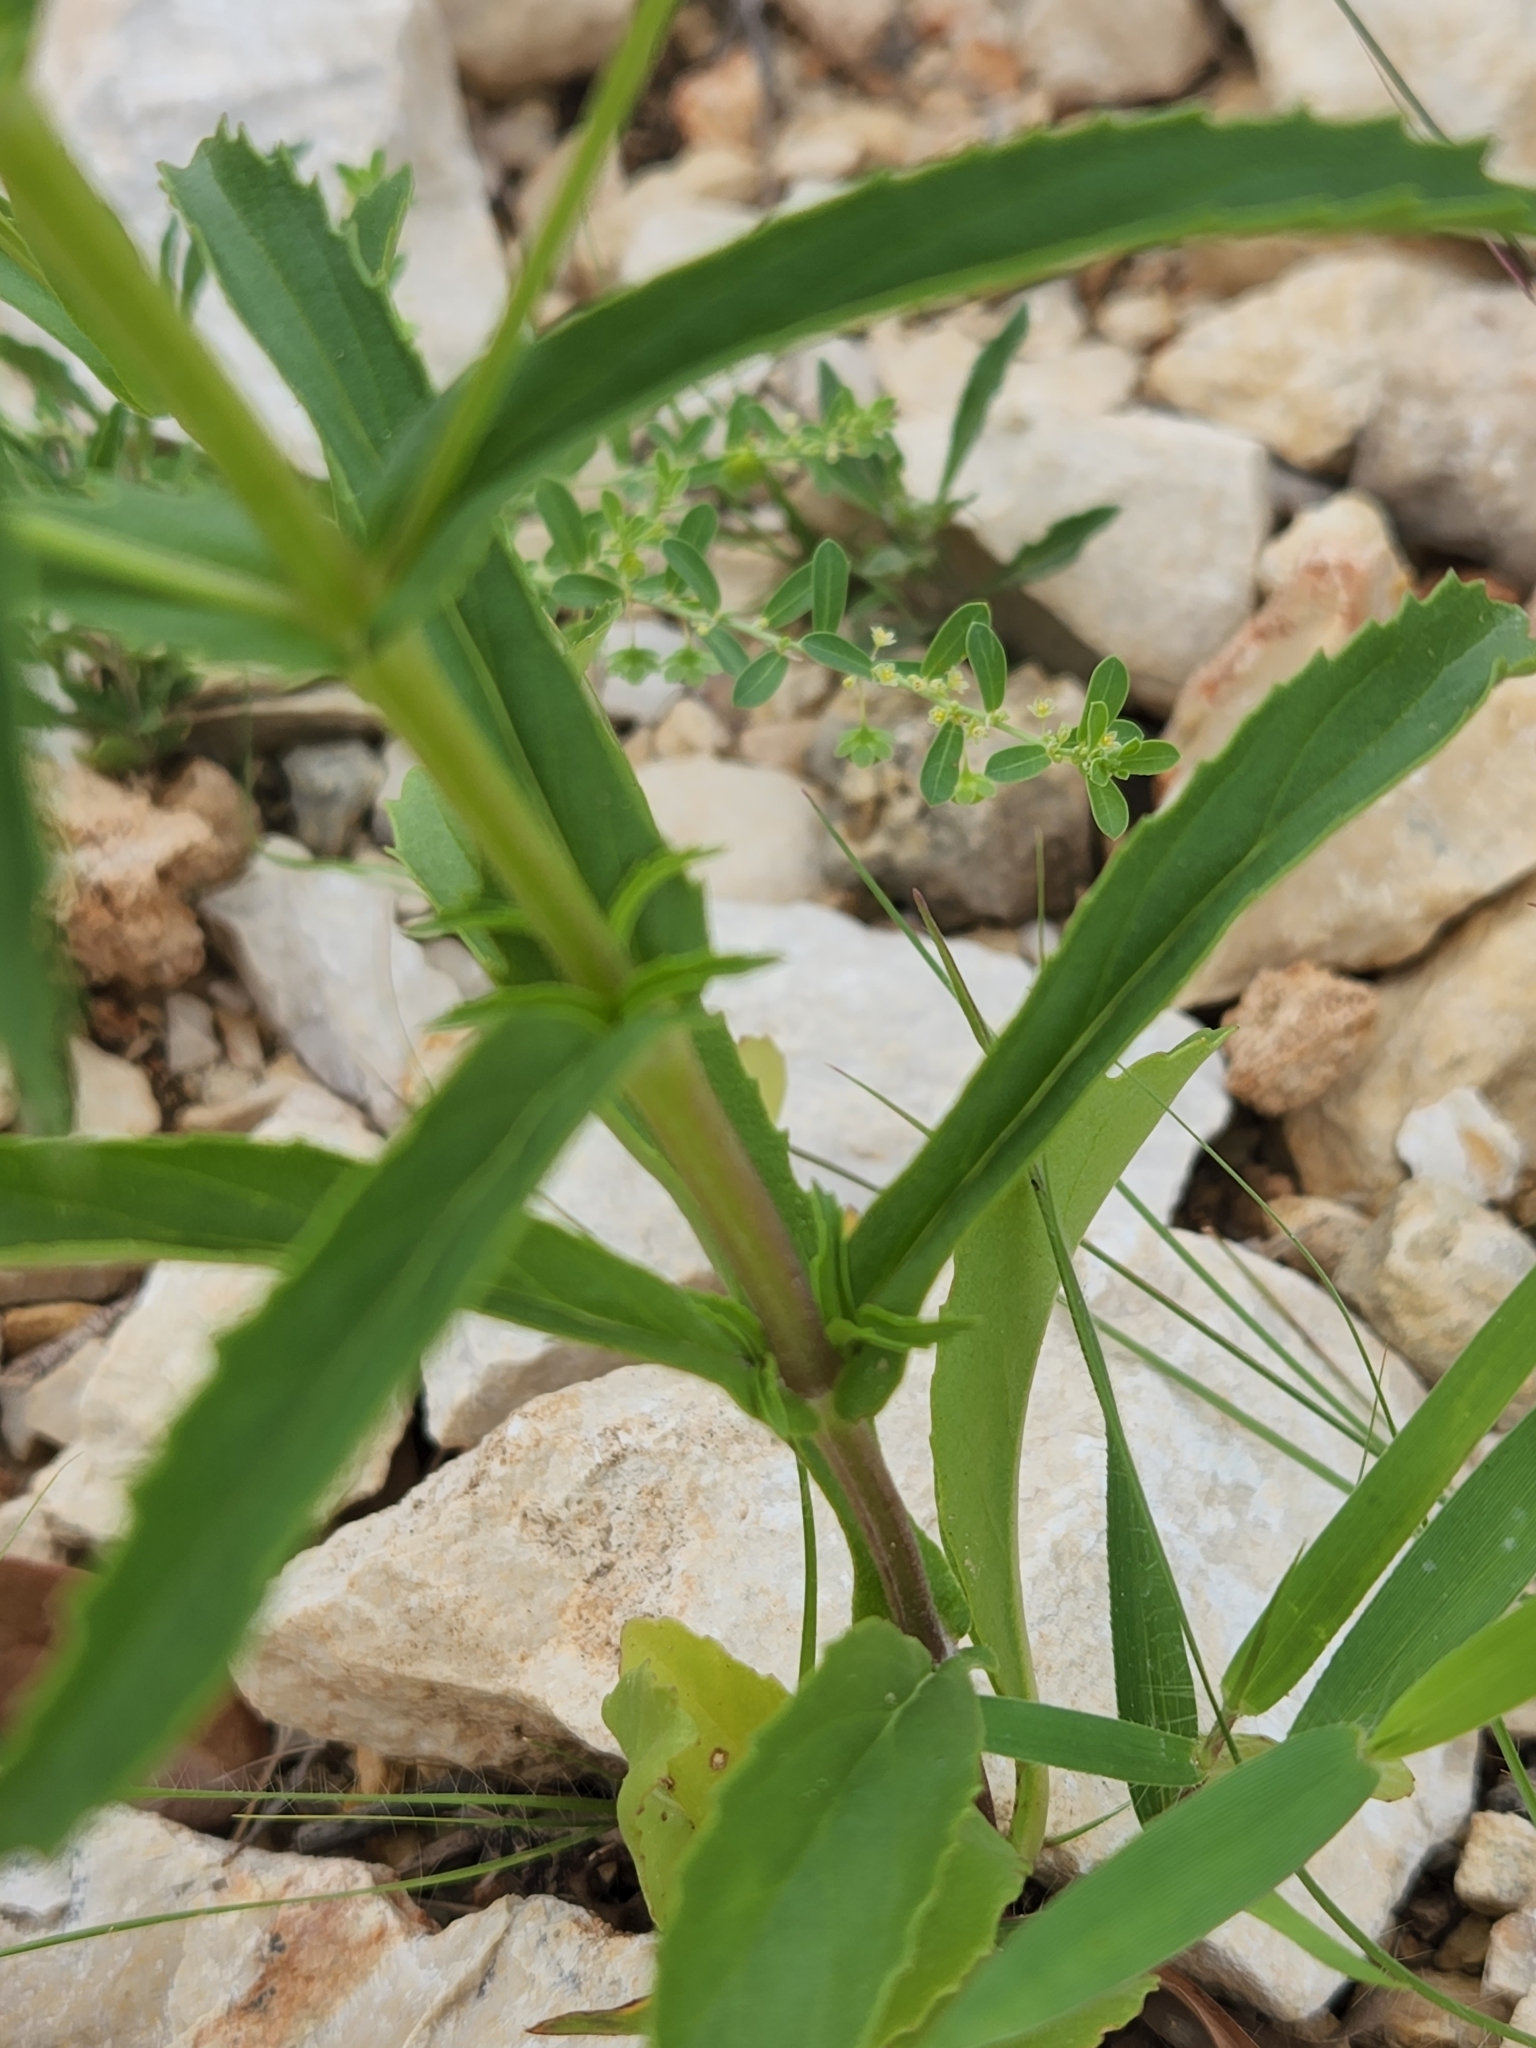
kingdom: Plantae
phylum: Tracheophyta
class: Magnoliopsida
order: Lamiales
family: Lamiaceae
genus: Warnockia
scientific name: Warnockia scutellarioides
